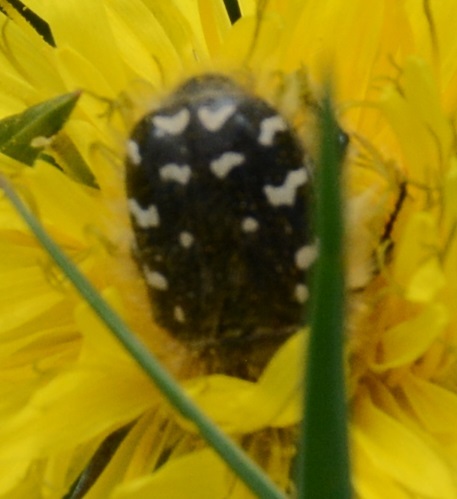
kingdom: Animalia
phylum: Arthropoda
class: Insecta
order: Coleoptera
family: Scarabaeidae
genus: Tropinota
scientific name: Tropinota hirta
